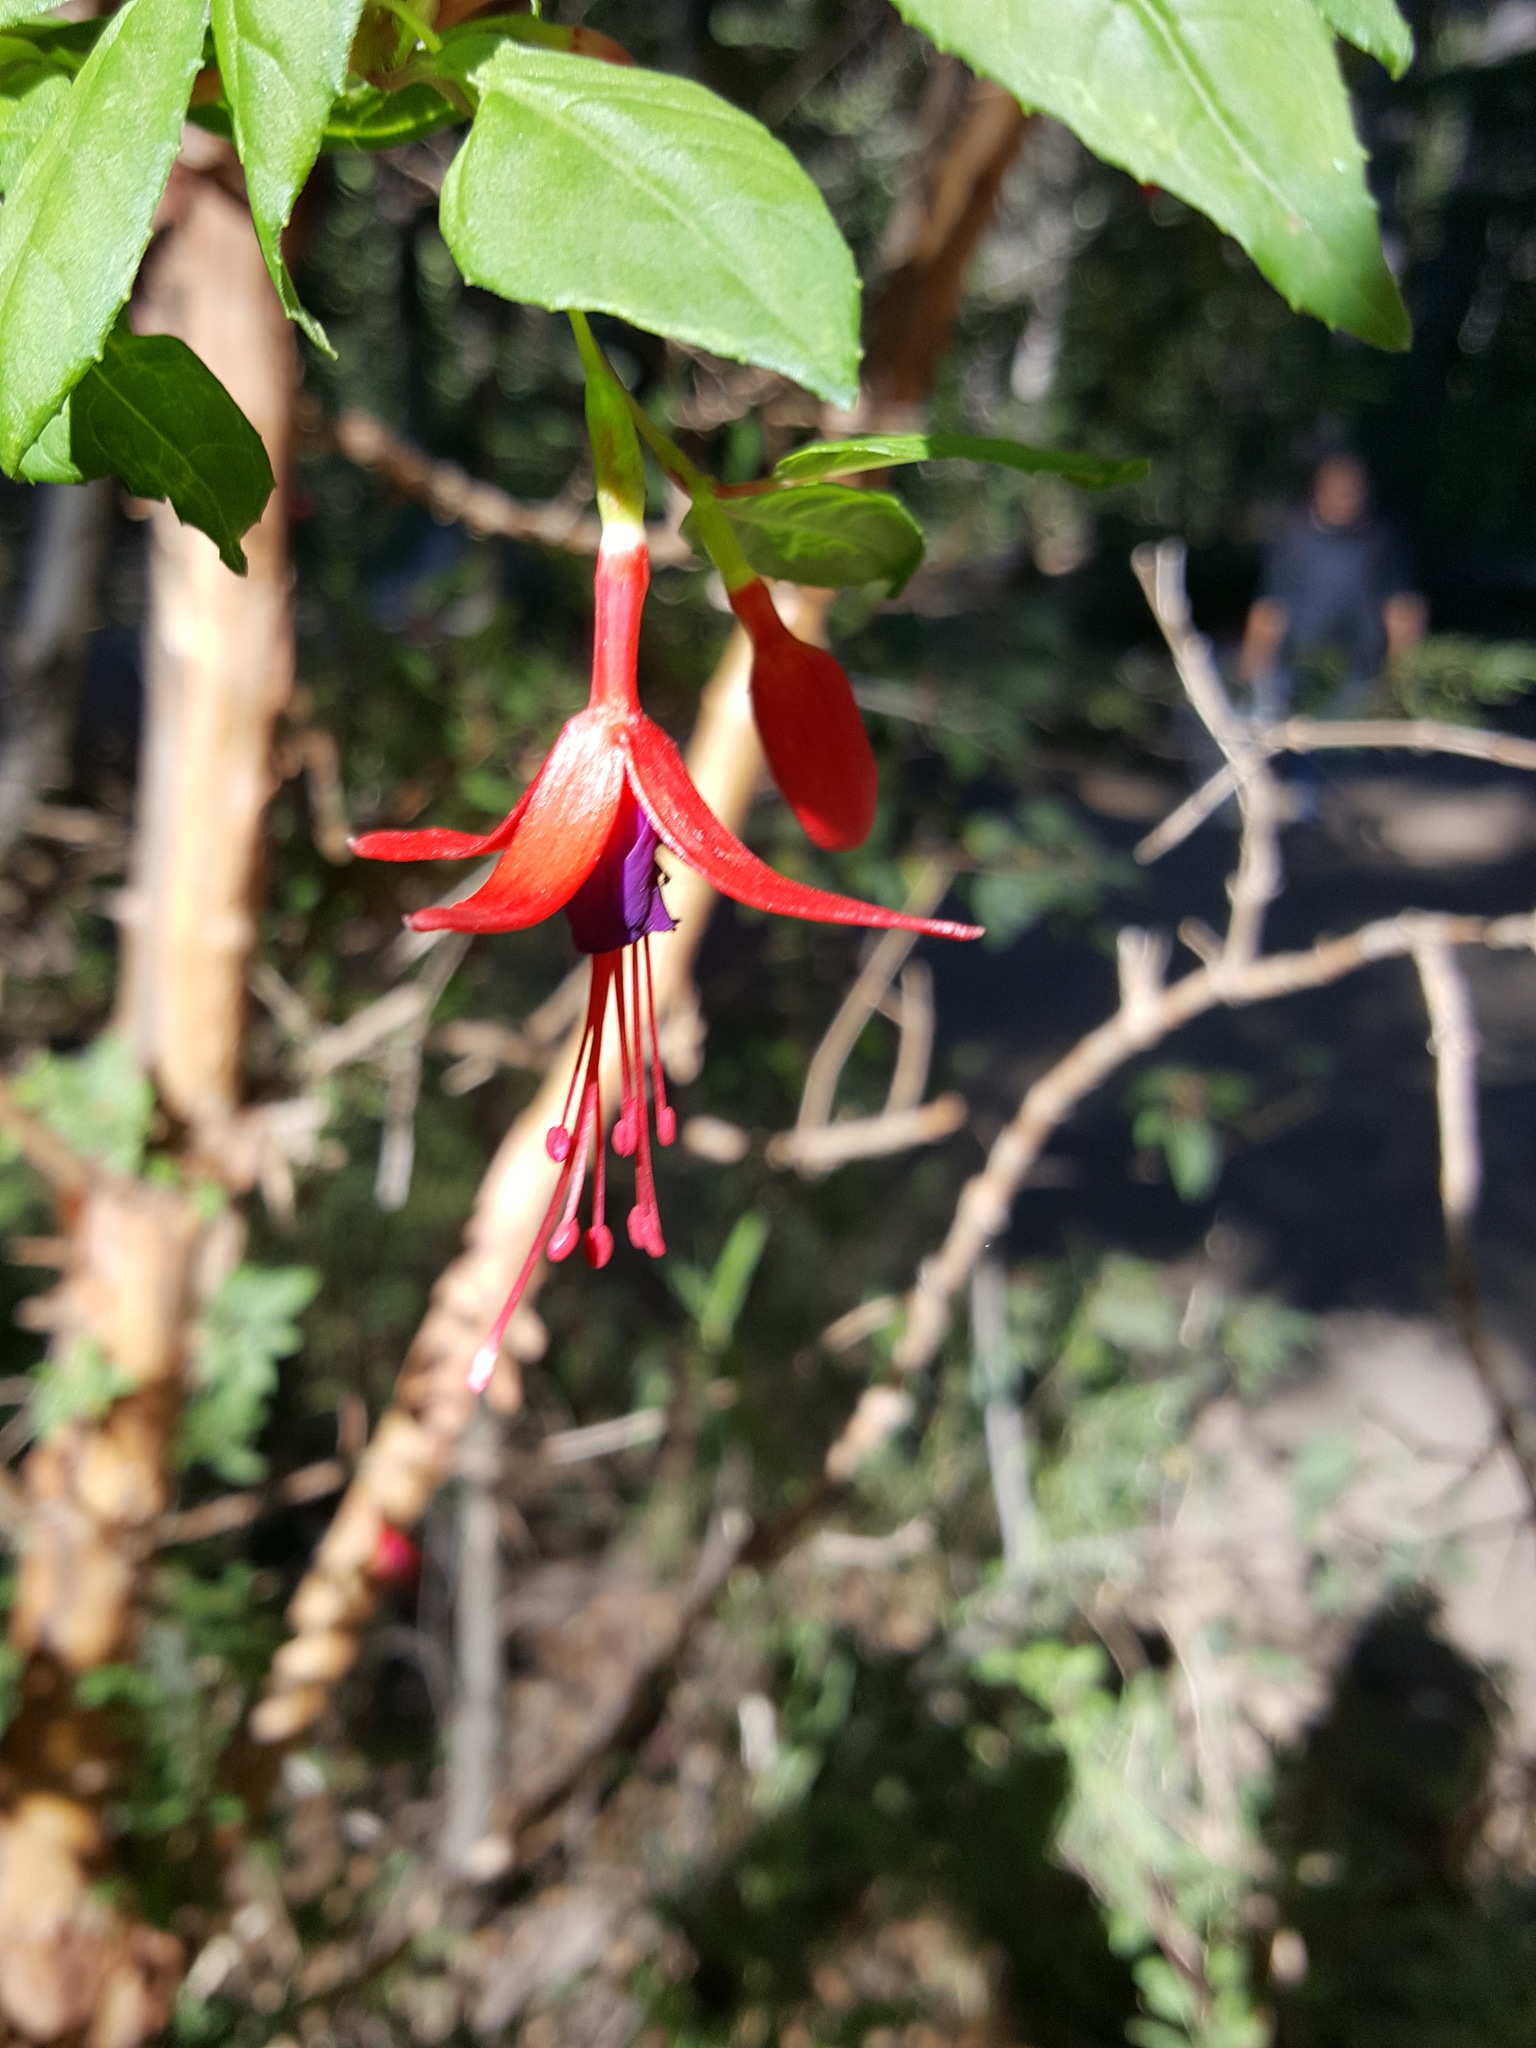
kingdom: Plantae
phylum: Tracheophyta
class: Magnoliopsida
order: Myrtales
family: Onagraceae
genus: Fuchsia
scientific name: Fuchsia magellanica
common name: Hardy fuchsia
